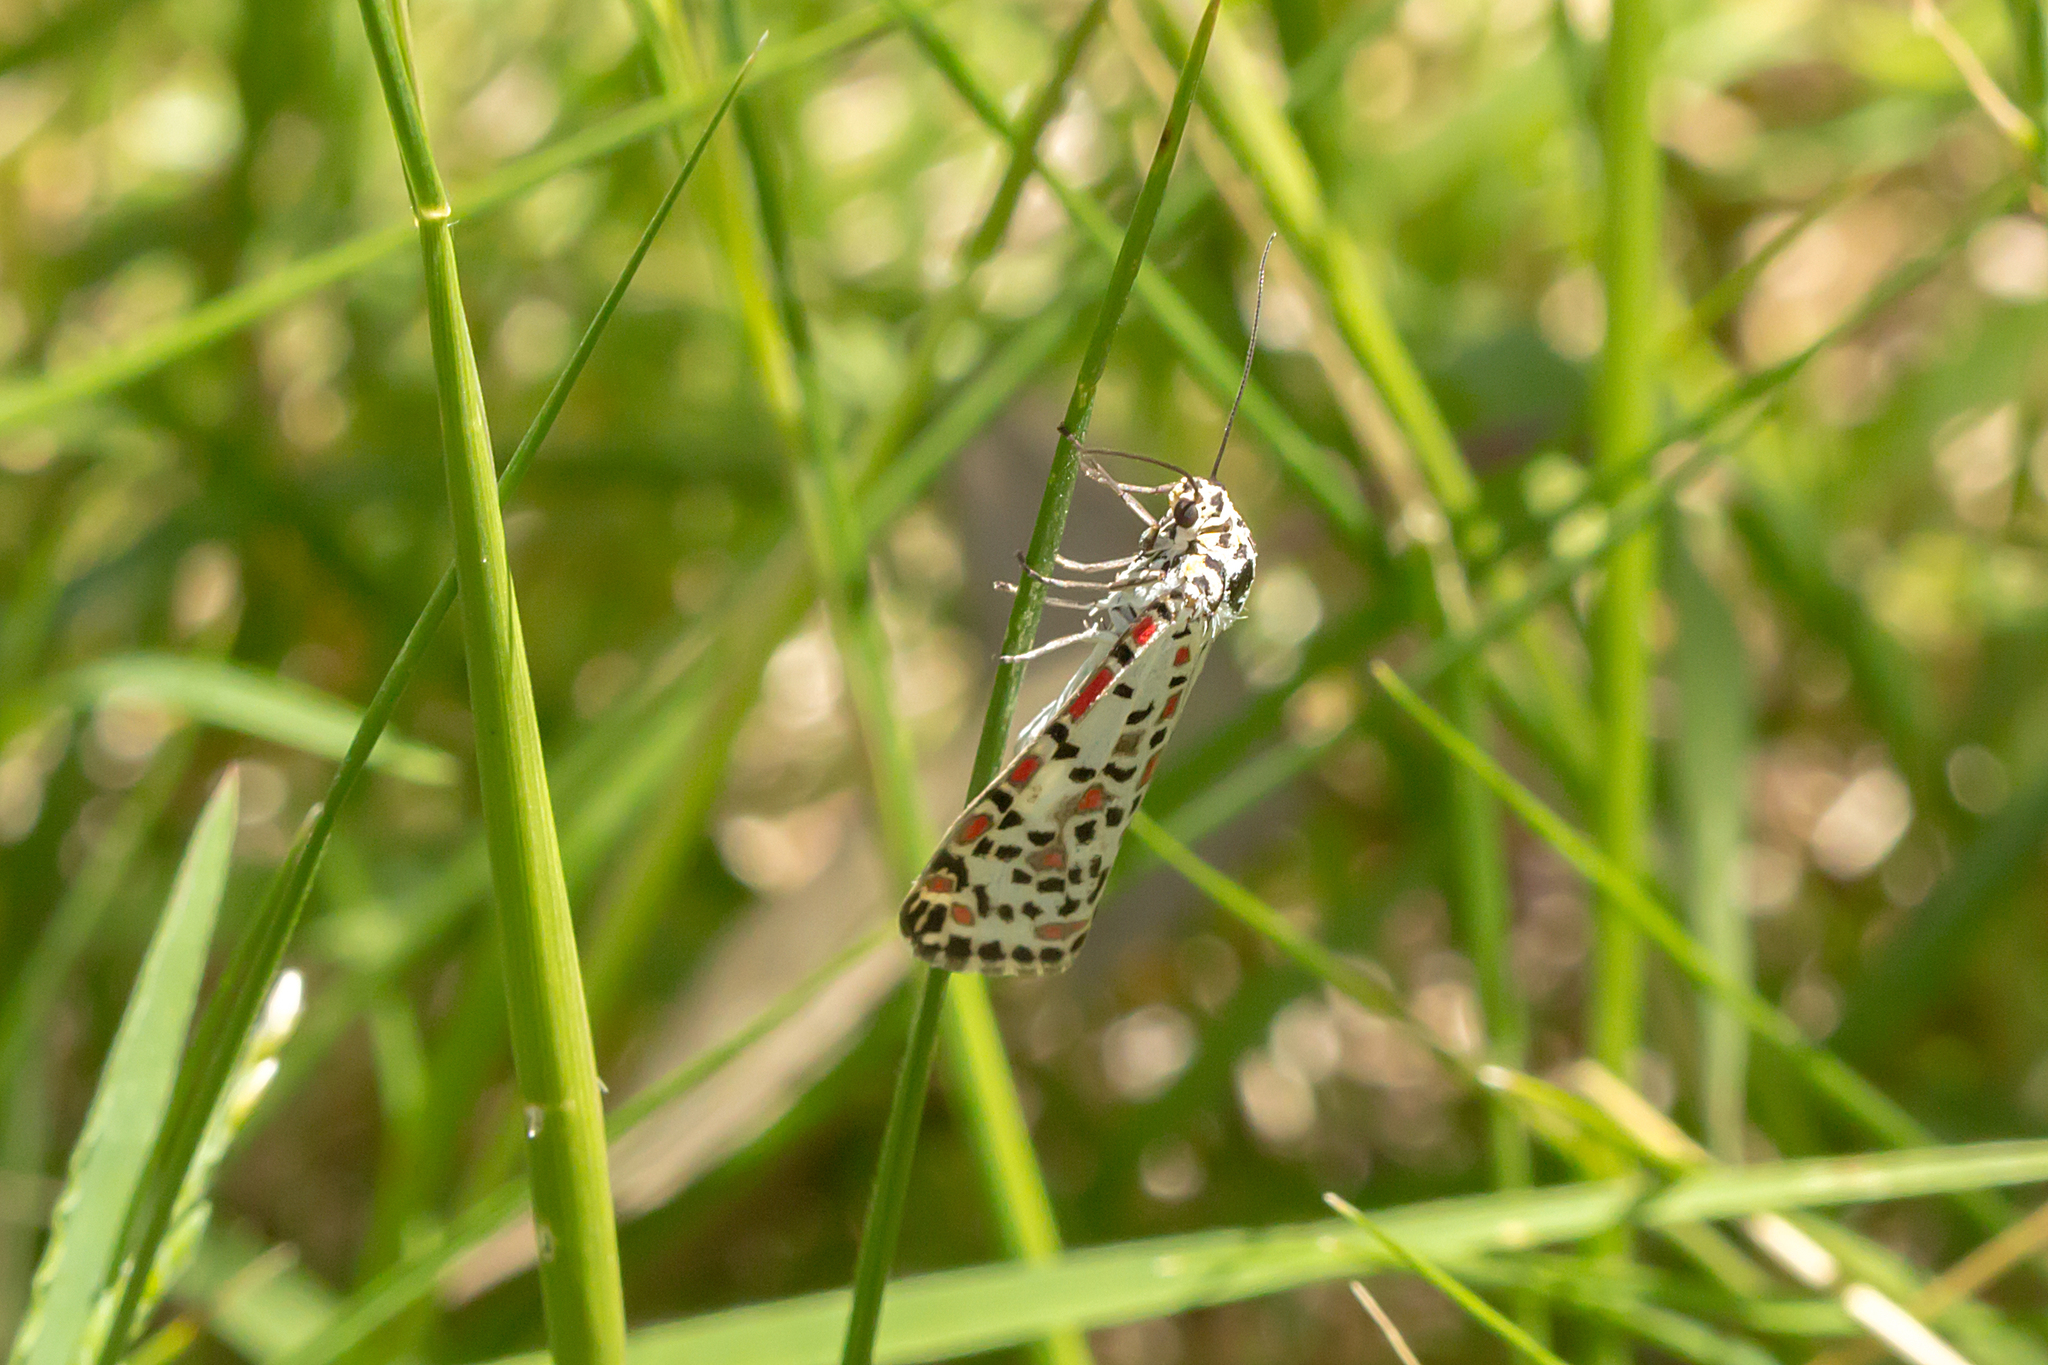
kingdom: Animalia
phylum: Arthropoda
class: Insecta
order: Lepidoptera
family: Erebidae
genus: Utetheisa
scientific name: Utetheisa pulchelloides
